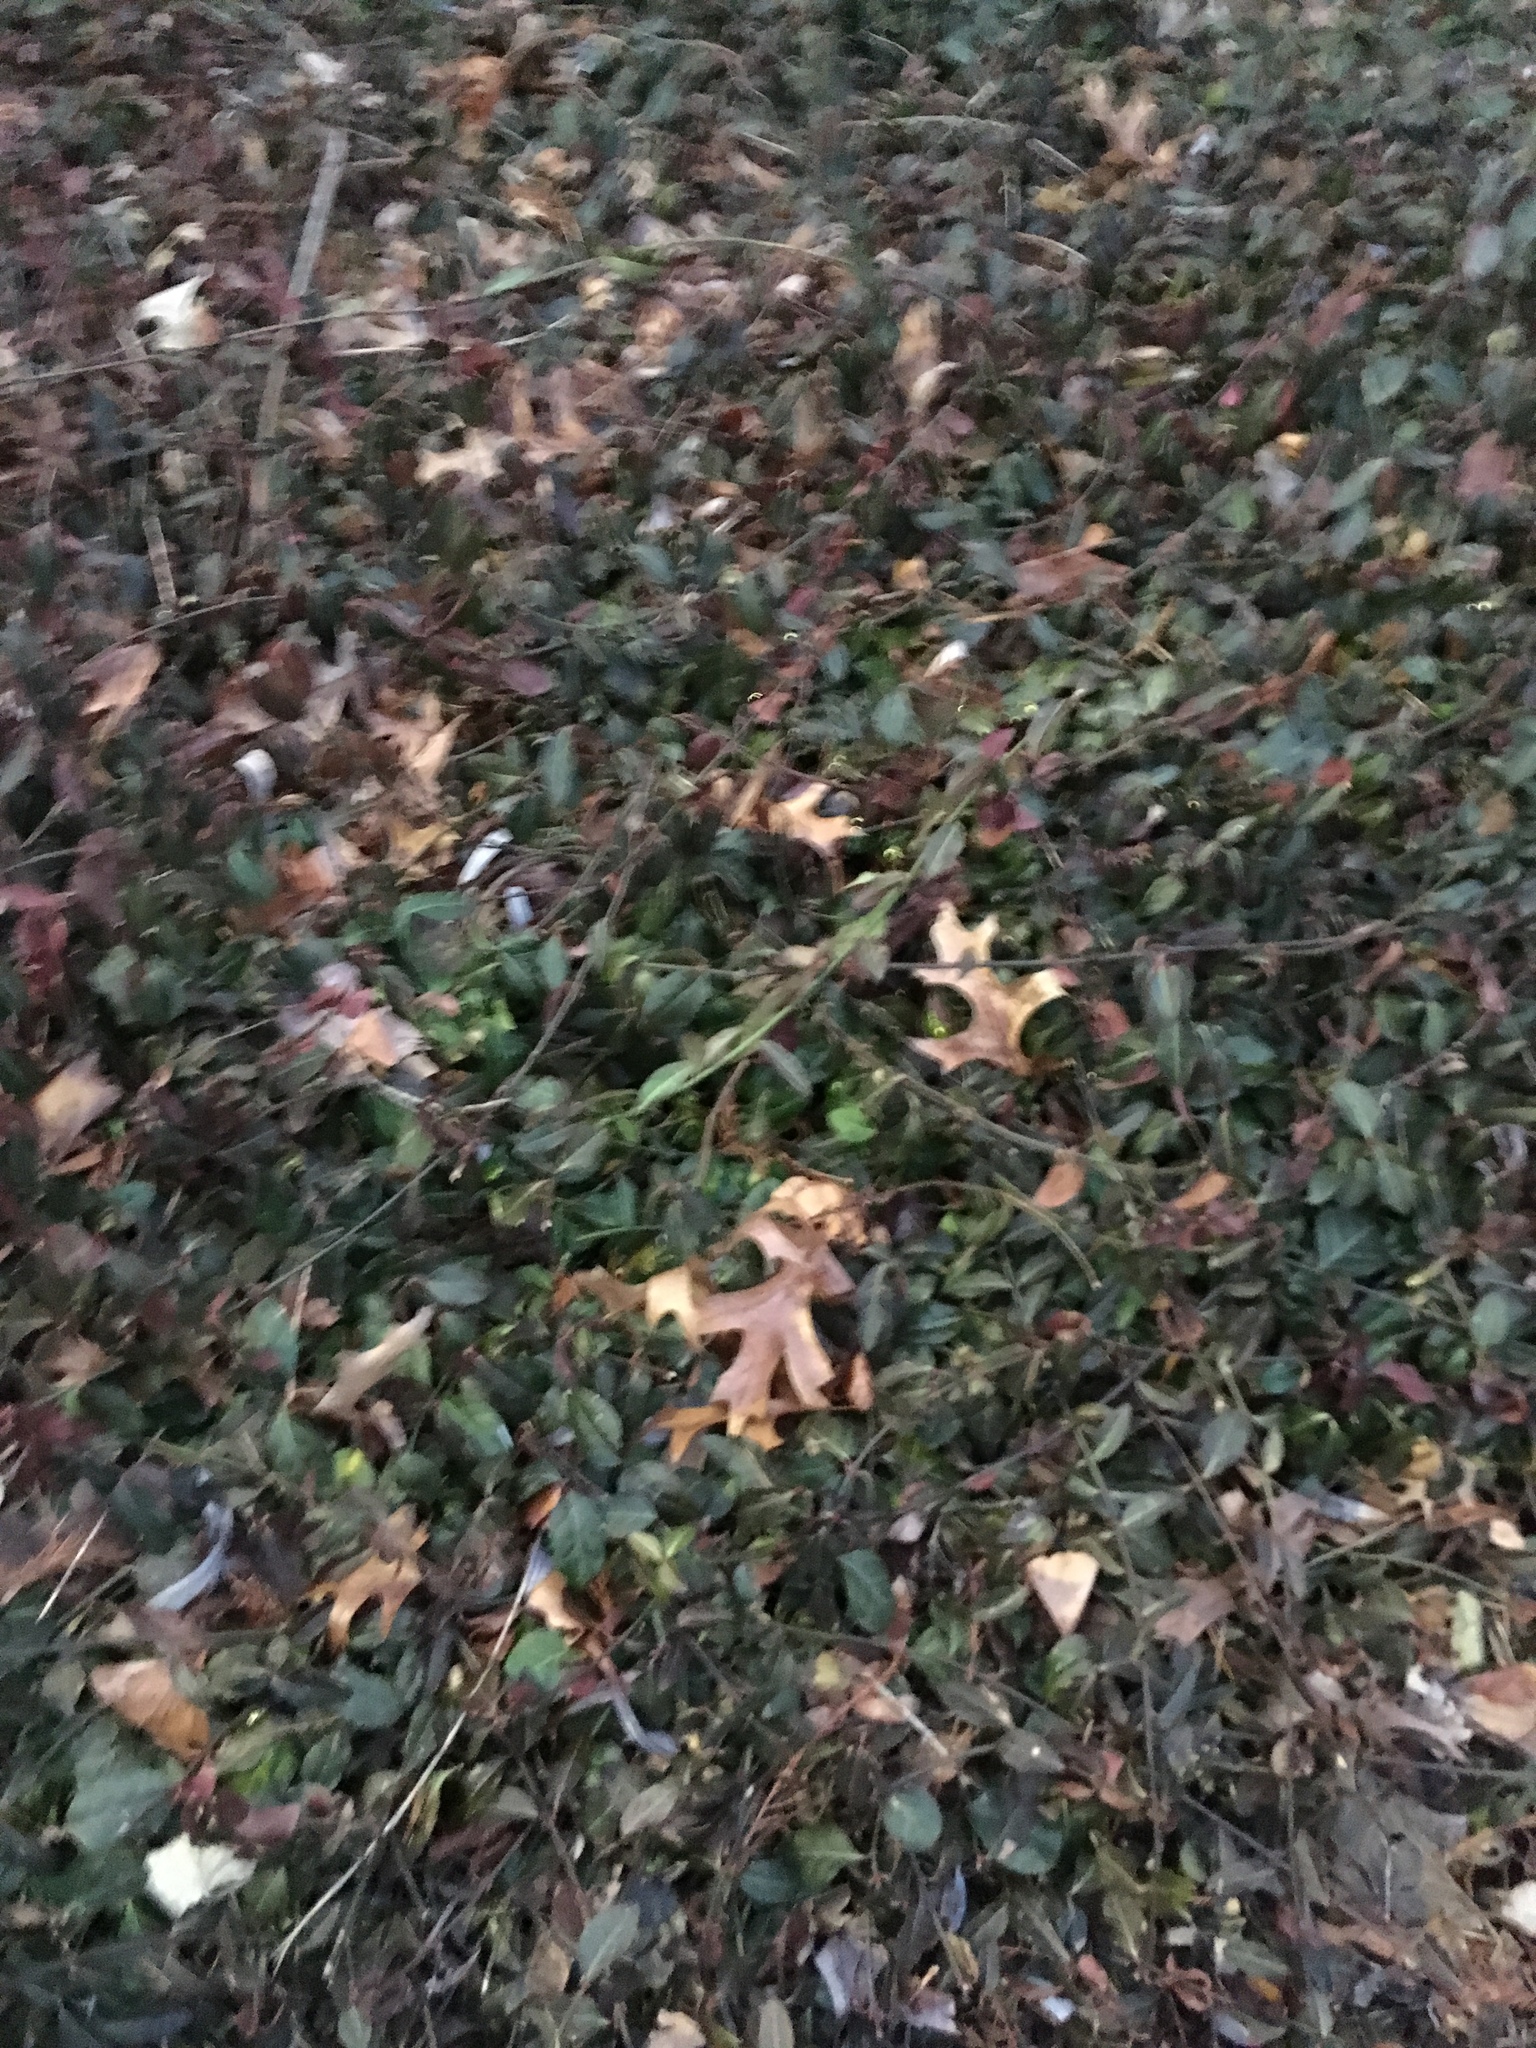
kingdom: Plantae
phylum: Tracheophyta
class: Magnoliopsida
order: Celastrales
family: Celastraceae
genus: Euonymus
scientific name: Euonymus fortunei
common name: Climbing euonymus
